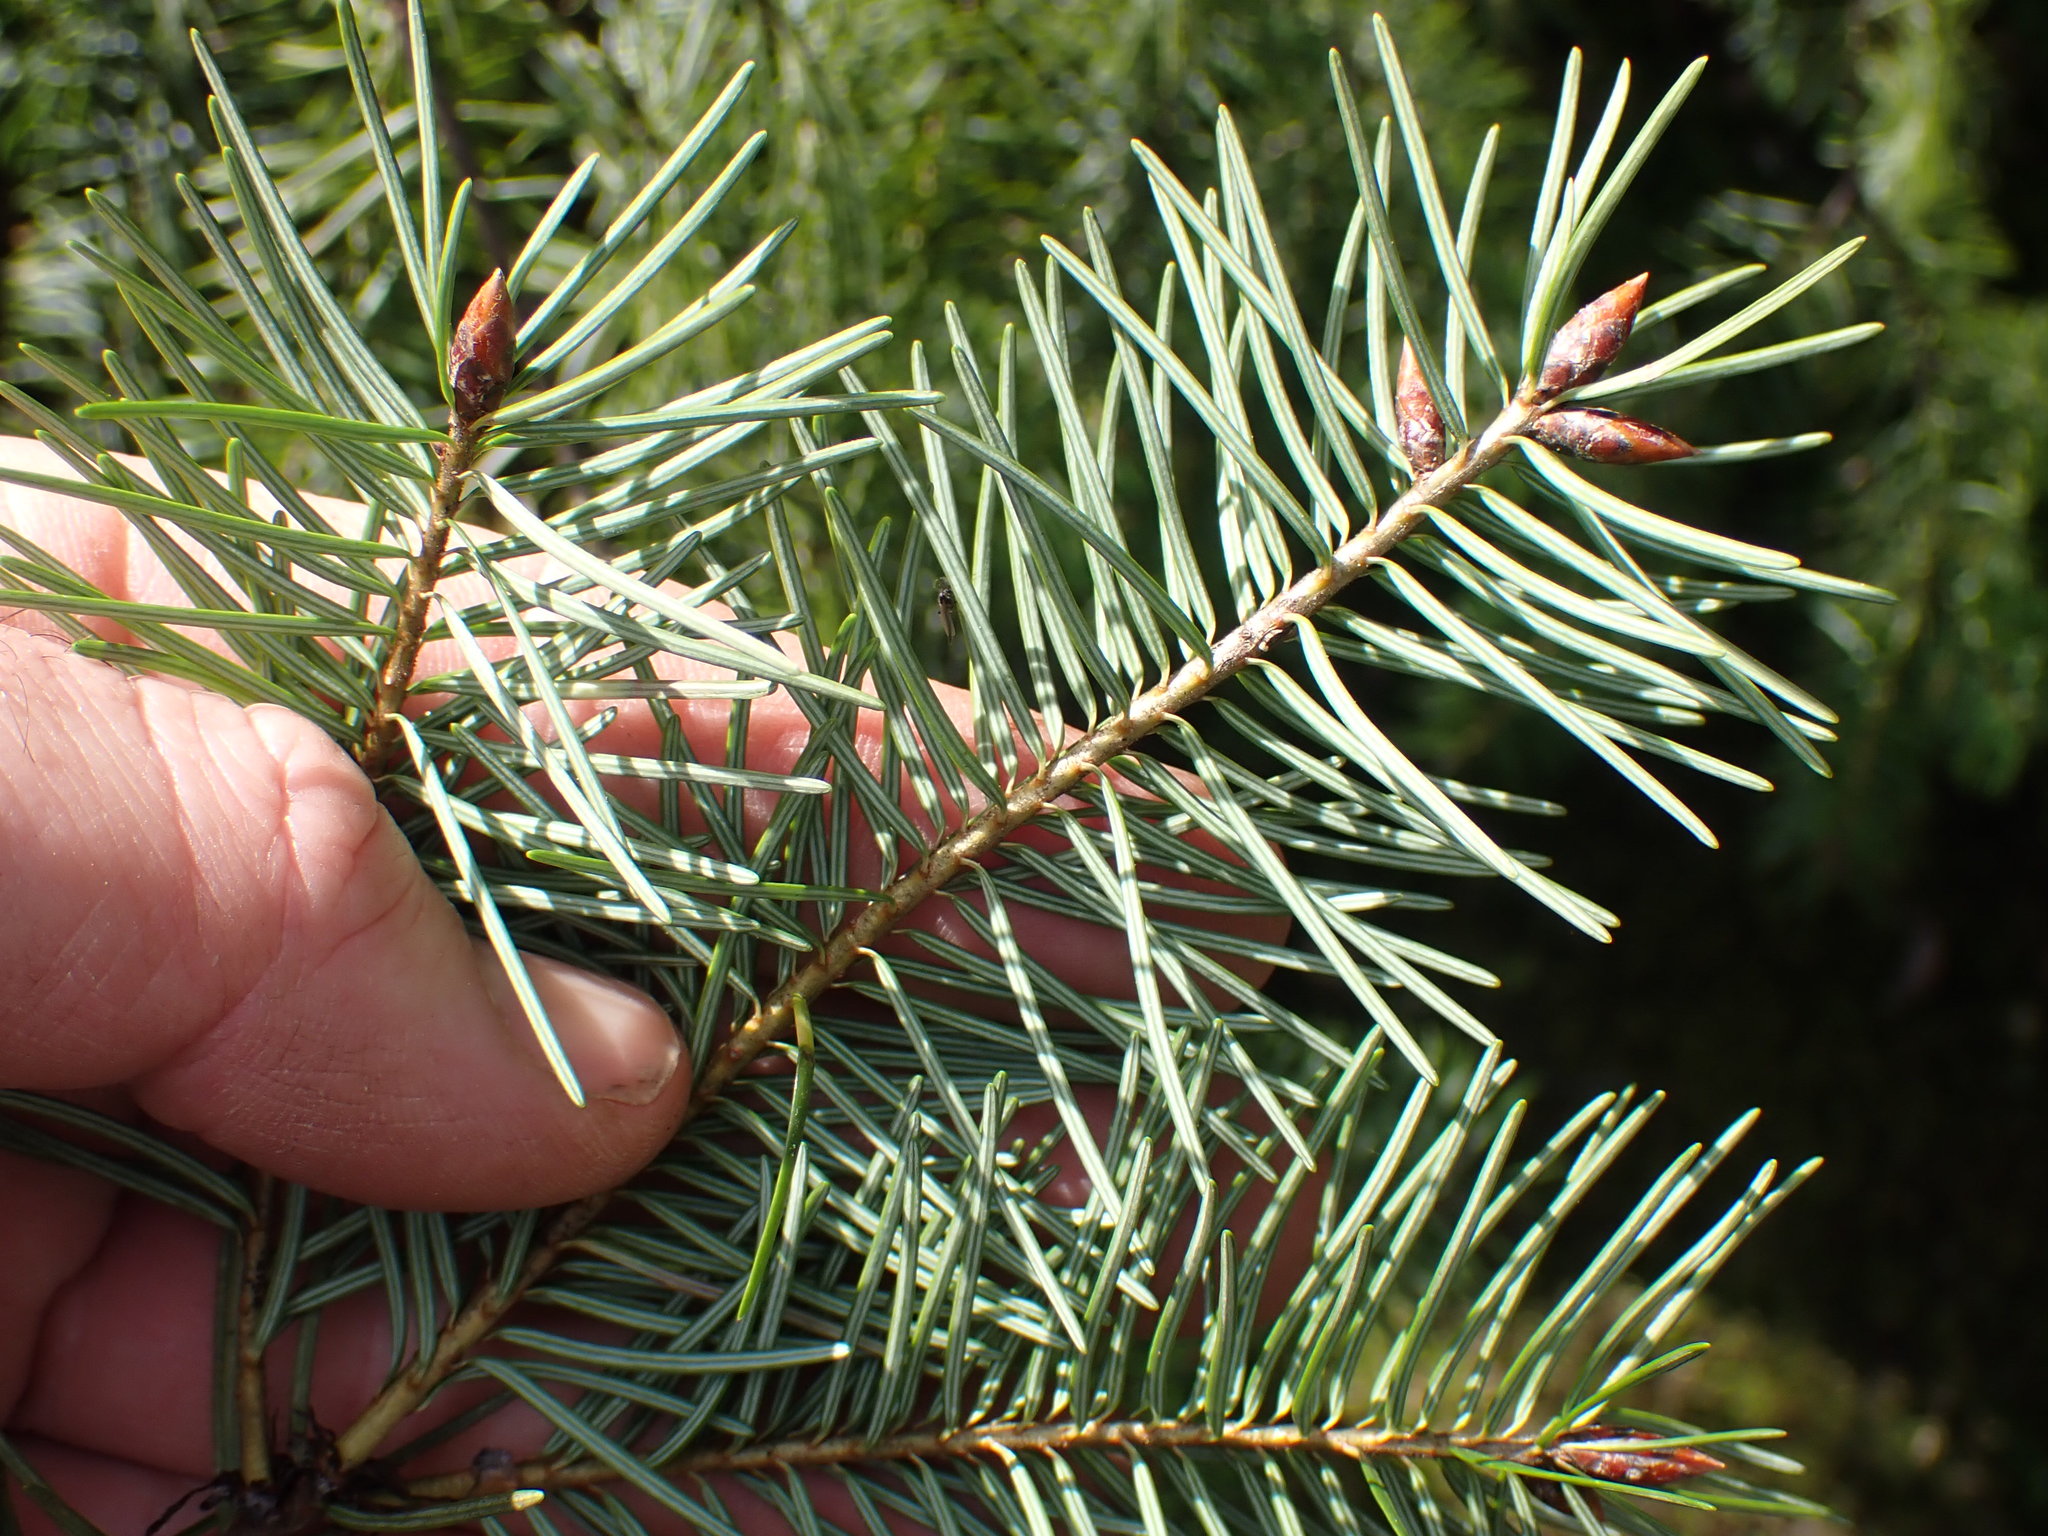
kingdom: Plantae
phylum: Tracheophyta
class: Pinopsida
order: Pinales
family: Pinaceae
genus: Pseudotsuga
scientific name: Pseudotsuga menziesii
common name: Douglas fir
